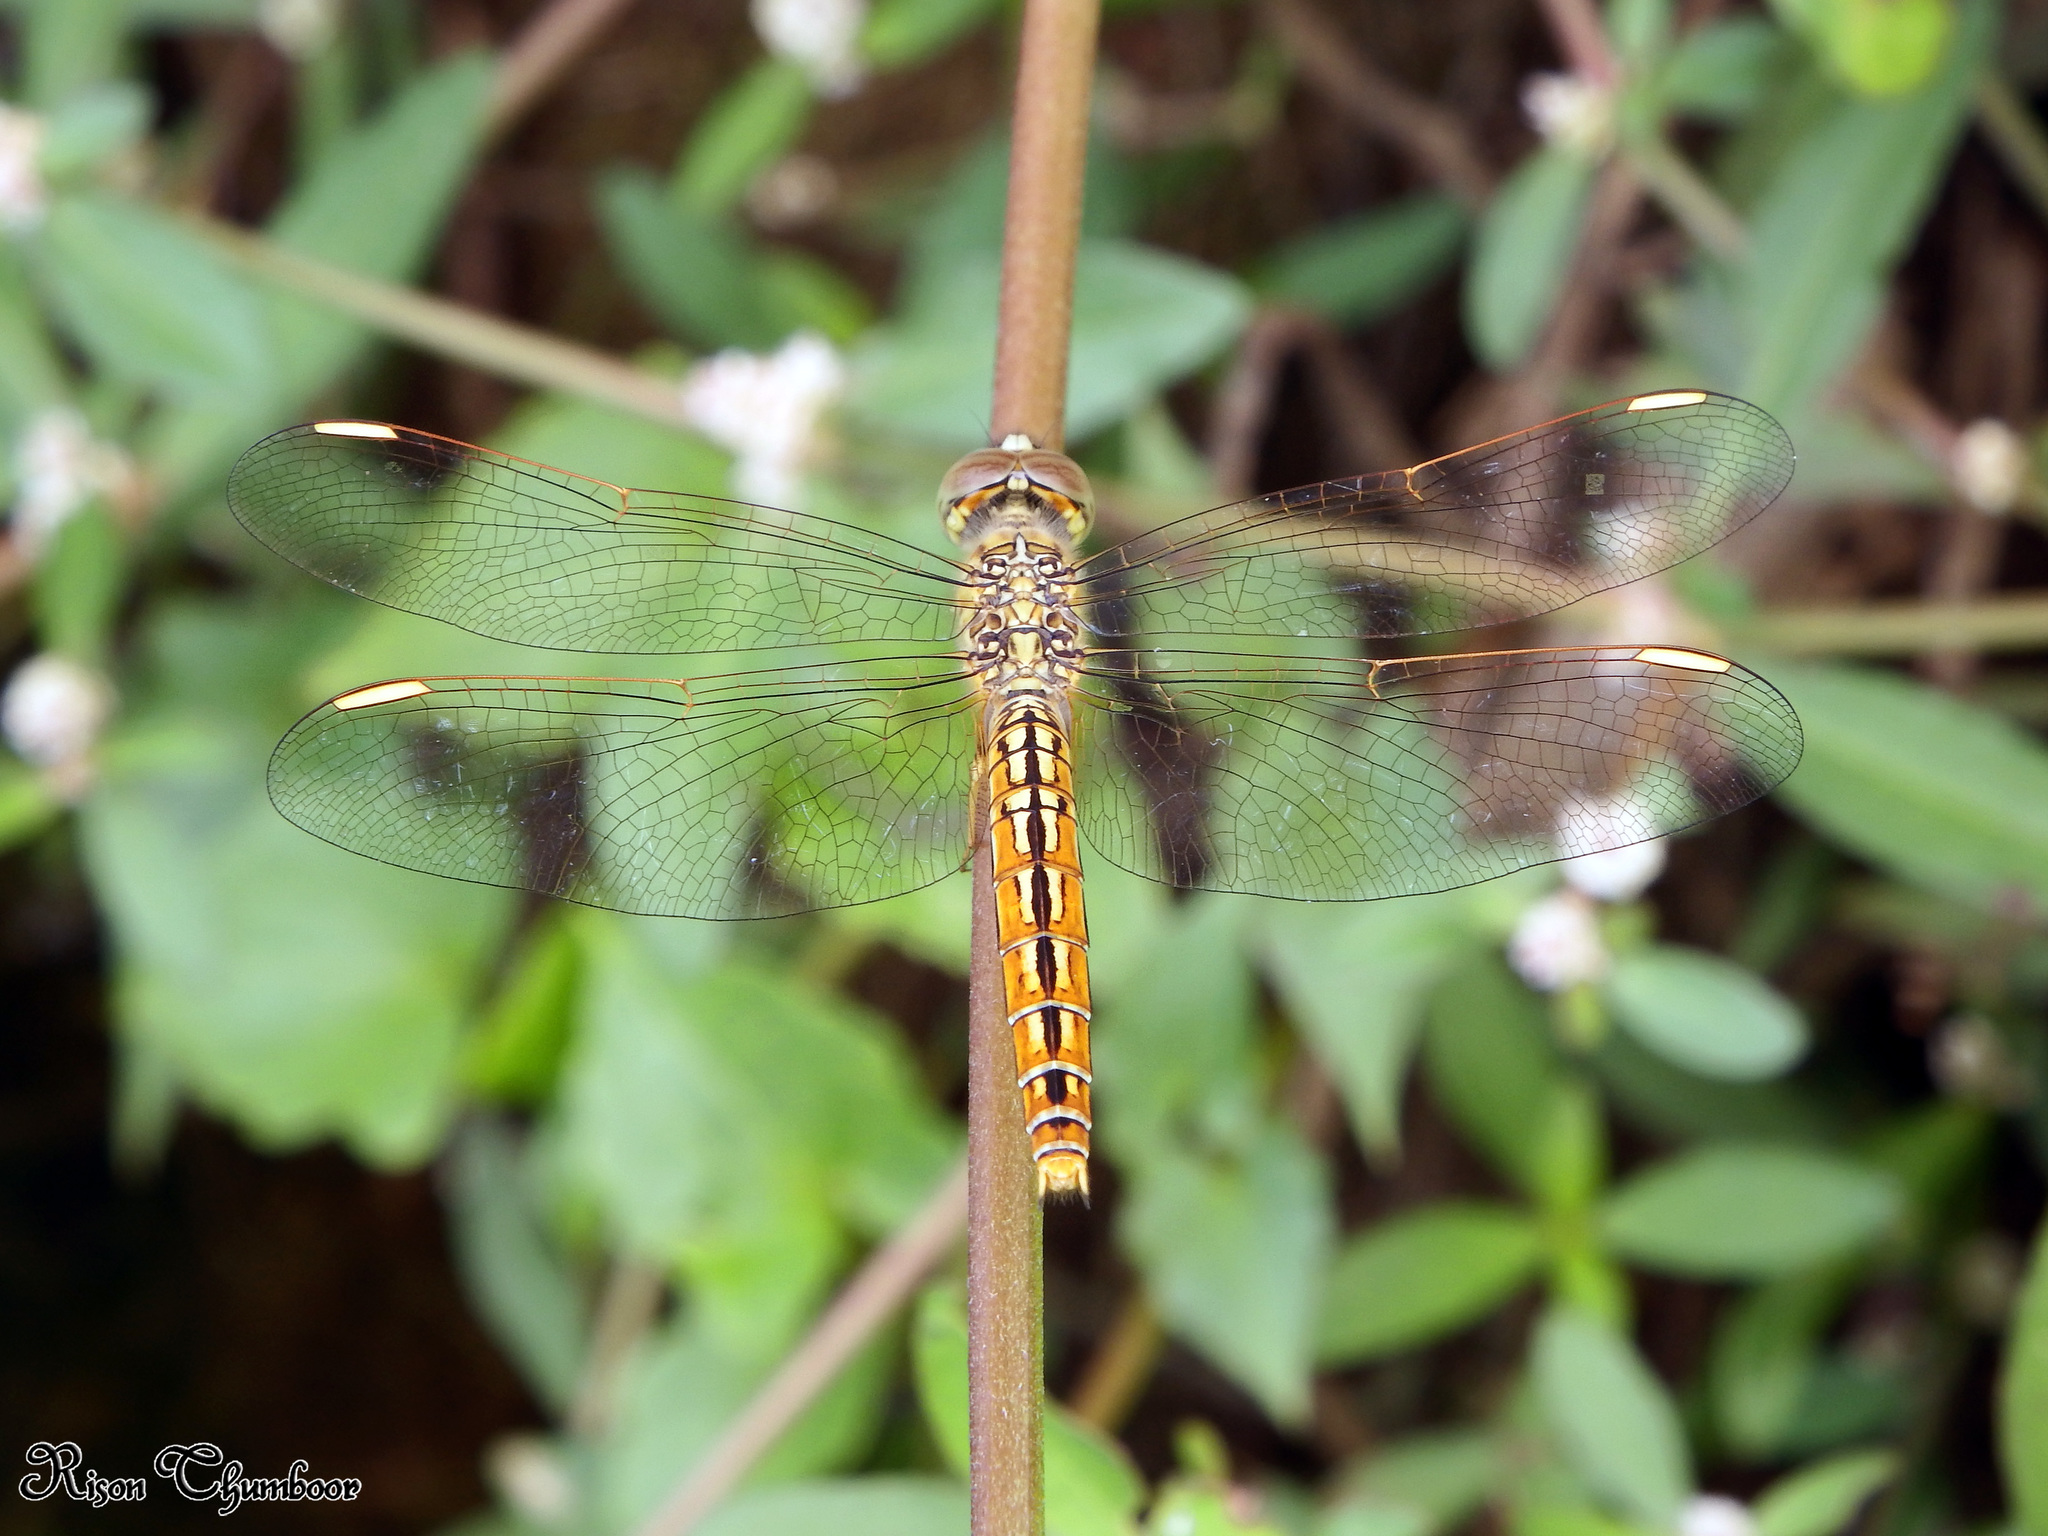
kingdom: Animalia
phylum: Arthropoda
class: Insecta
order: Odonata
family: Libellulidae
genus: Brachythemis
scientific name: Brachythemis contaminata
